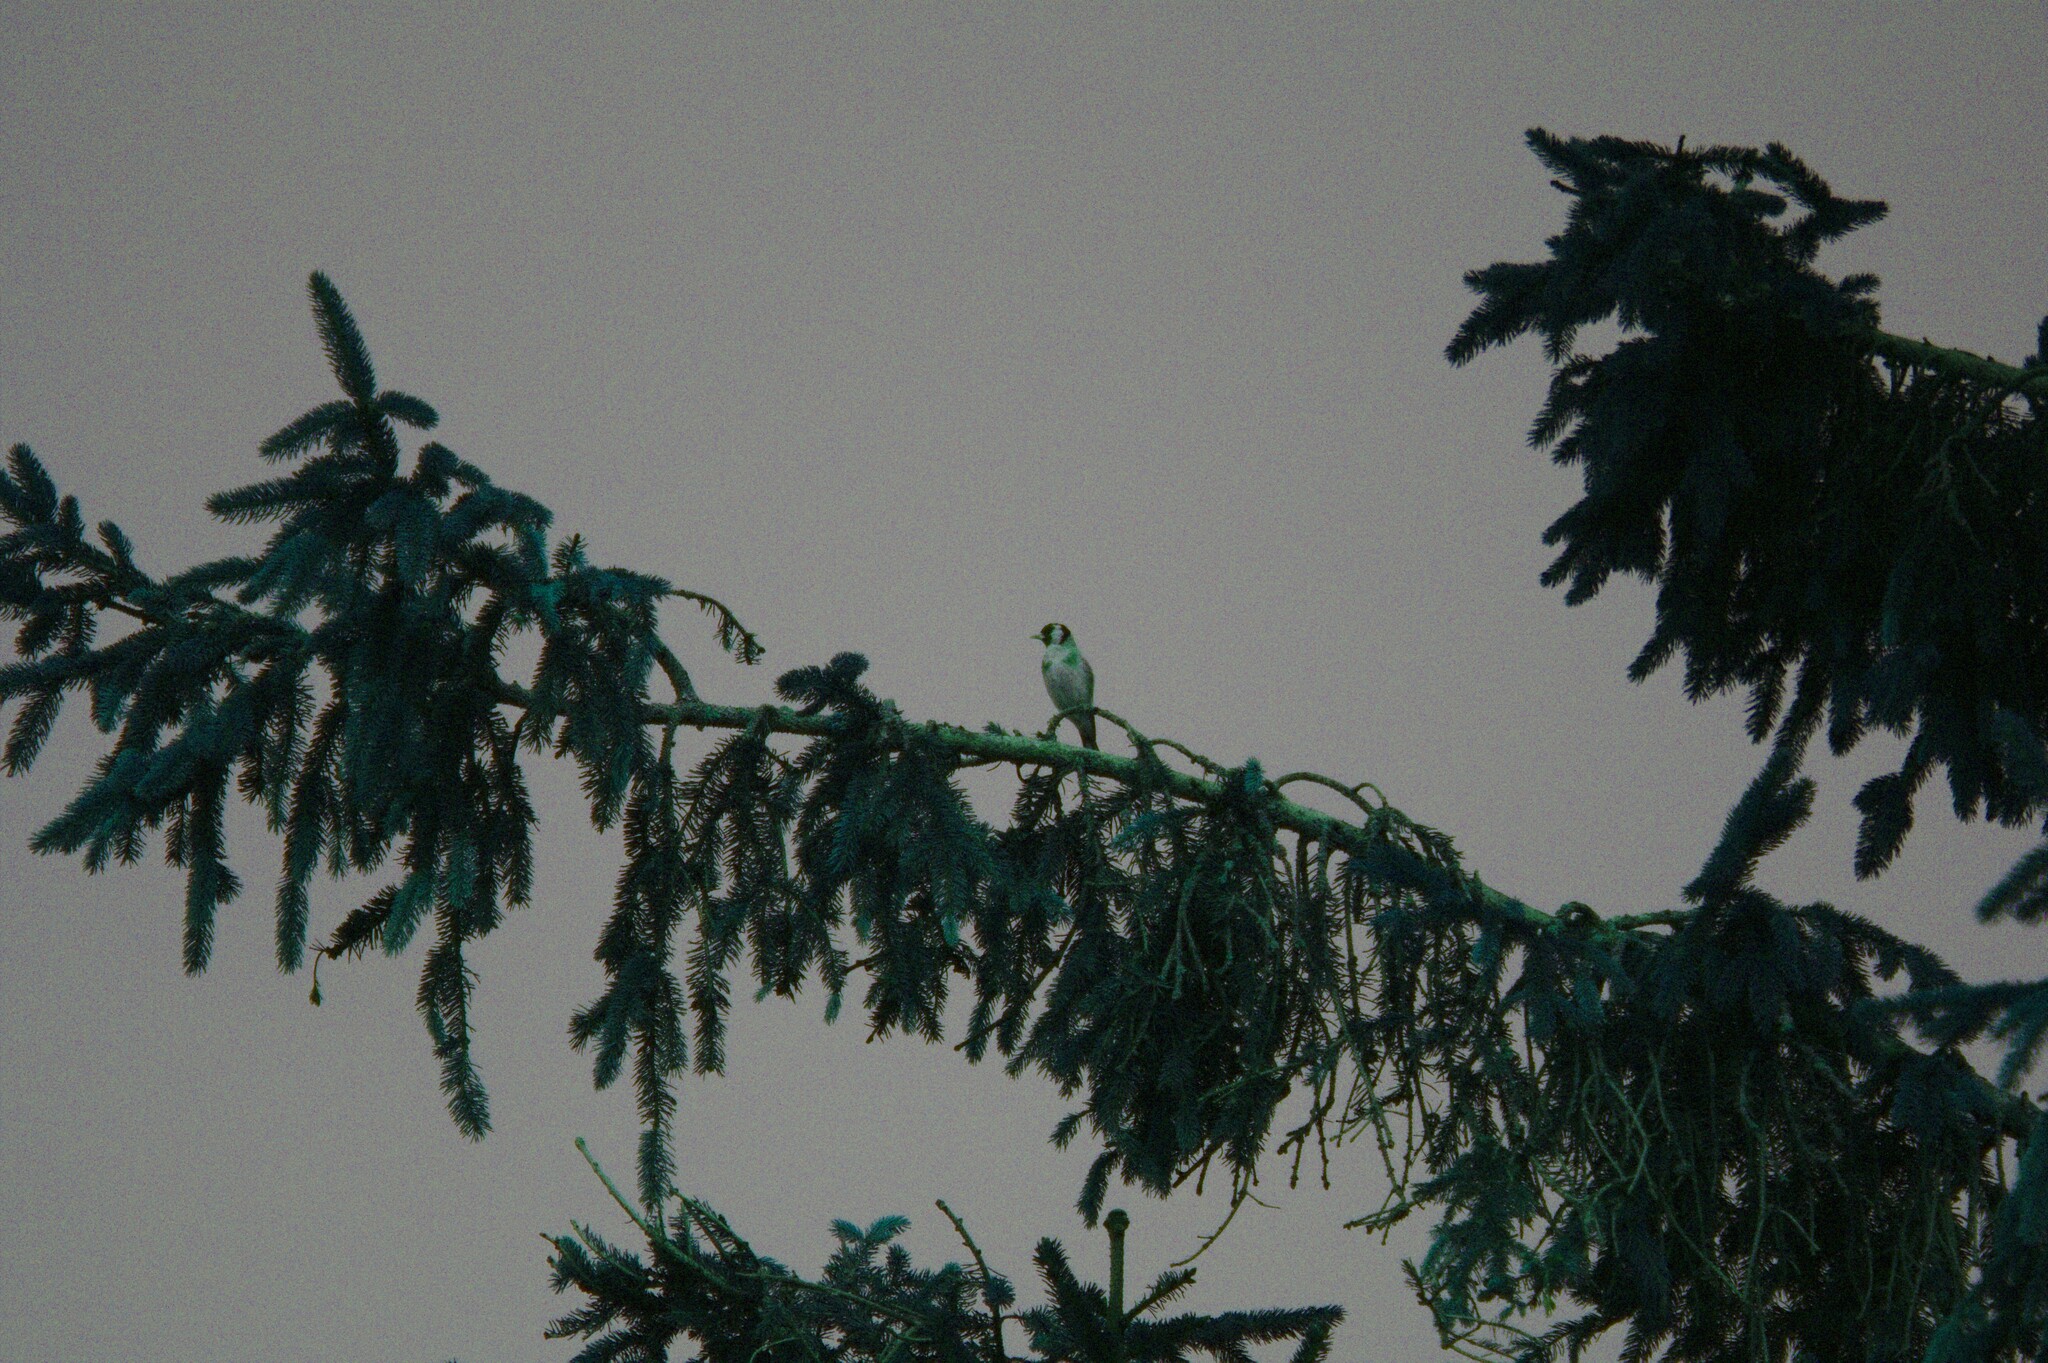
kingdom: Animalia
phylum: Chordata
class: Aves
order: Passeriformes
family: Fringillidae
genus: Carduelis
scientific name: Carduelis carduelis
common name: European goldfinch
